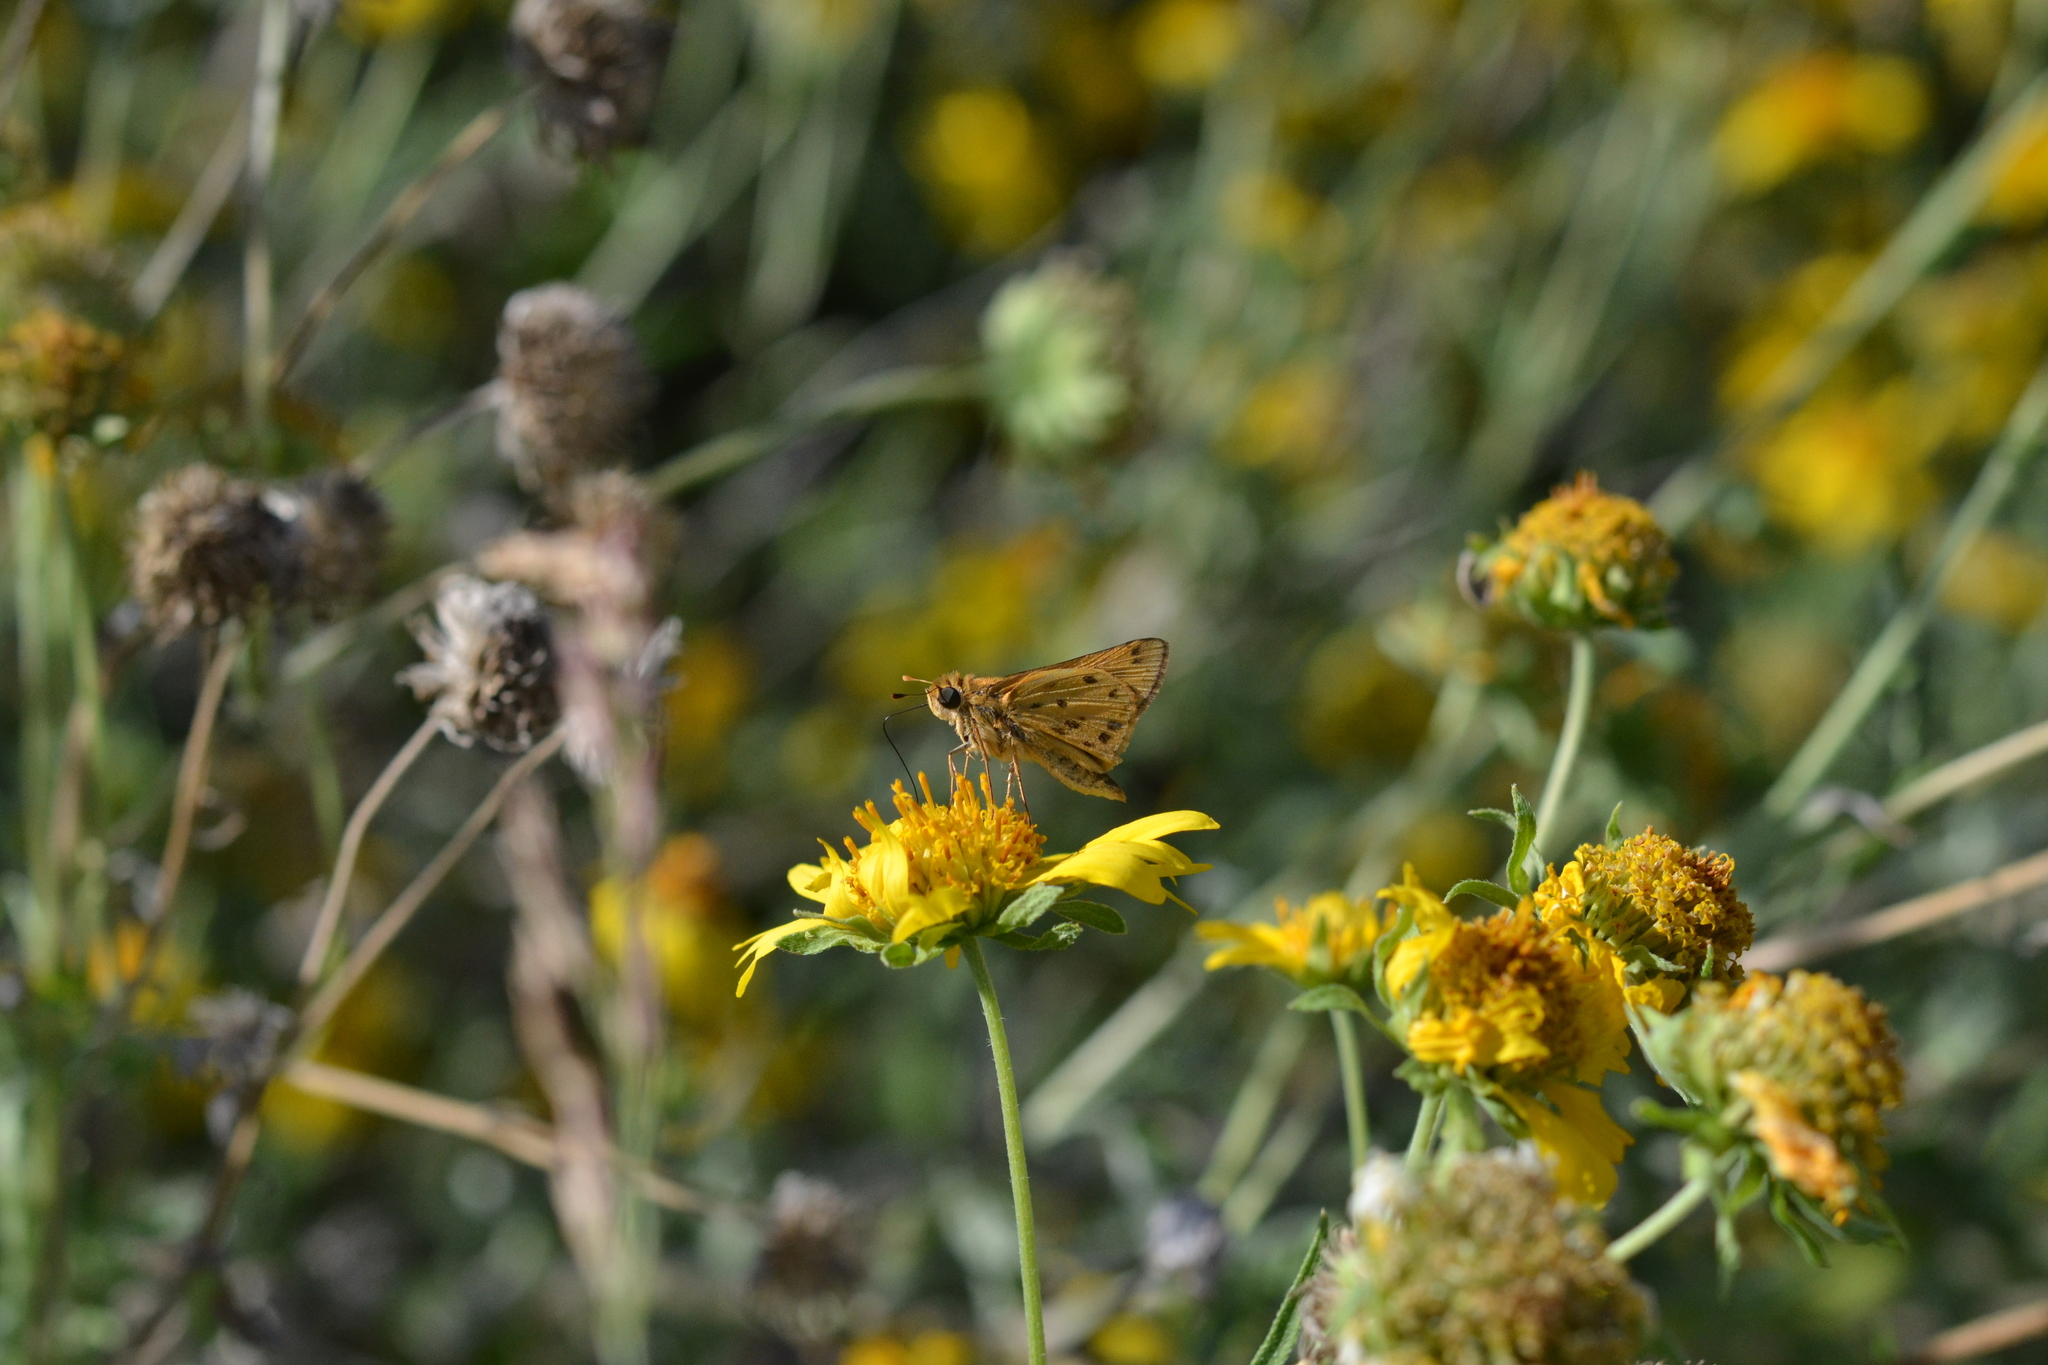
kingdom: Animalia
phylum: Arthropoda
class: Insecta
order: Lepidoptera
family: Hesperiidae
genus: Hylephila
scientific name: Hylephila phyleus
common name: Fiery skipper
